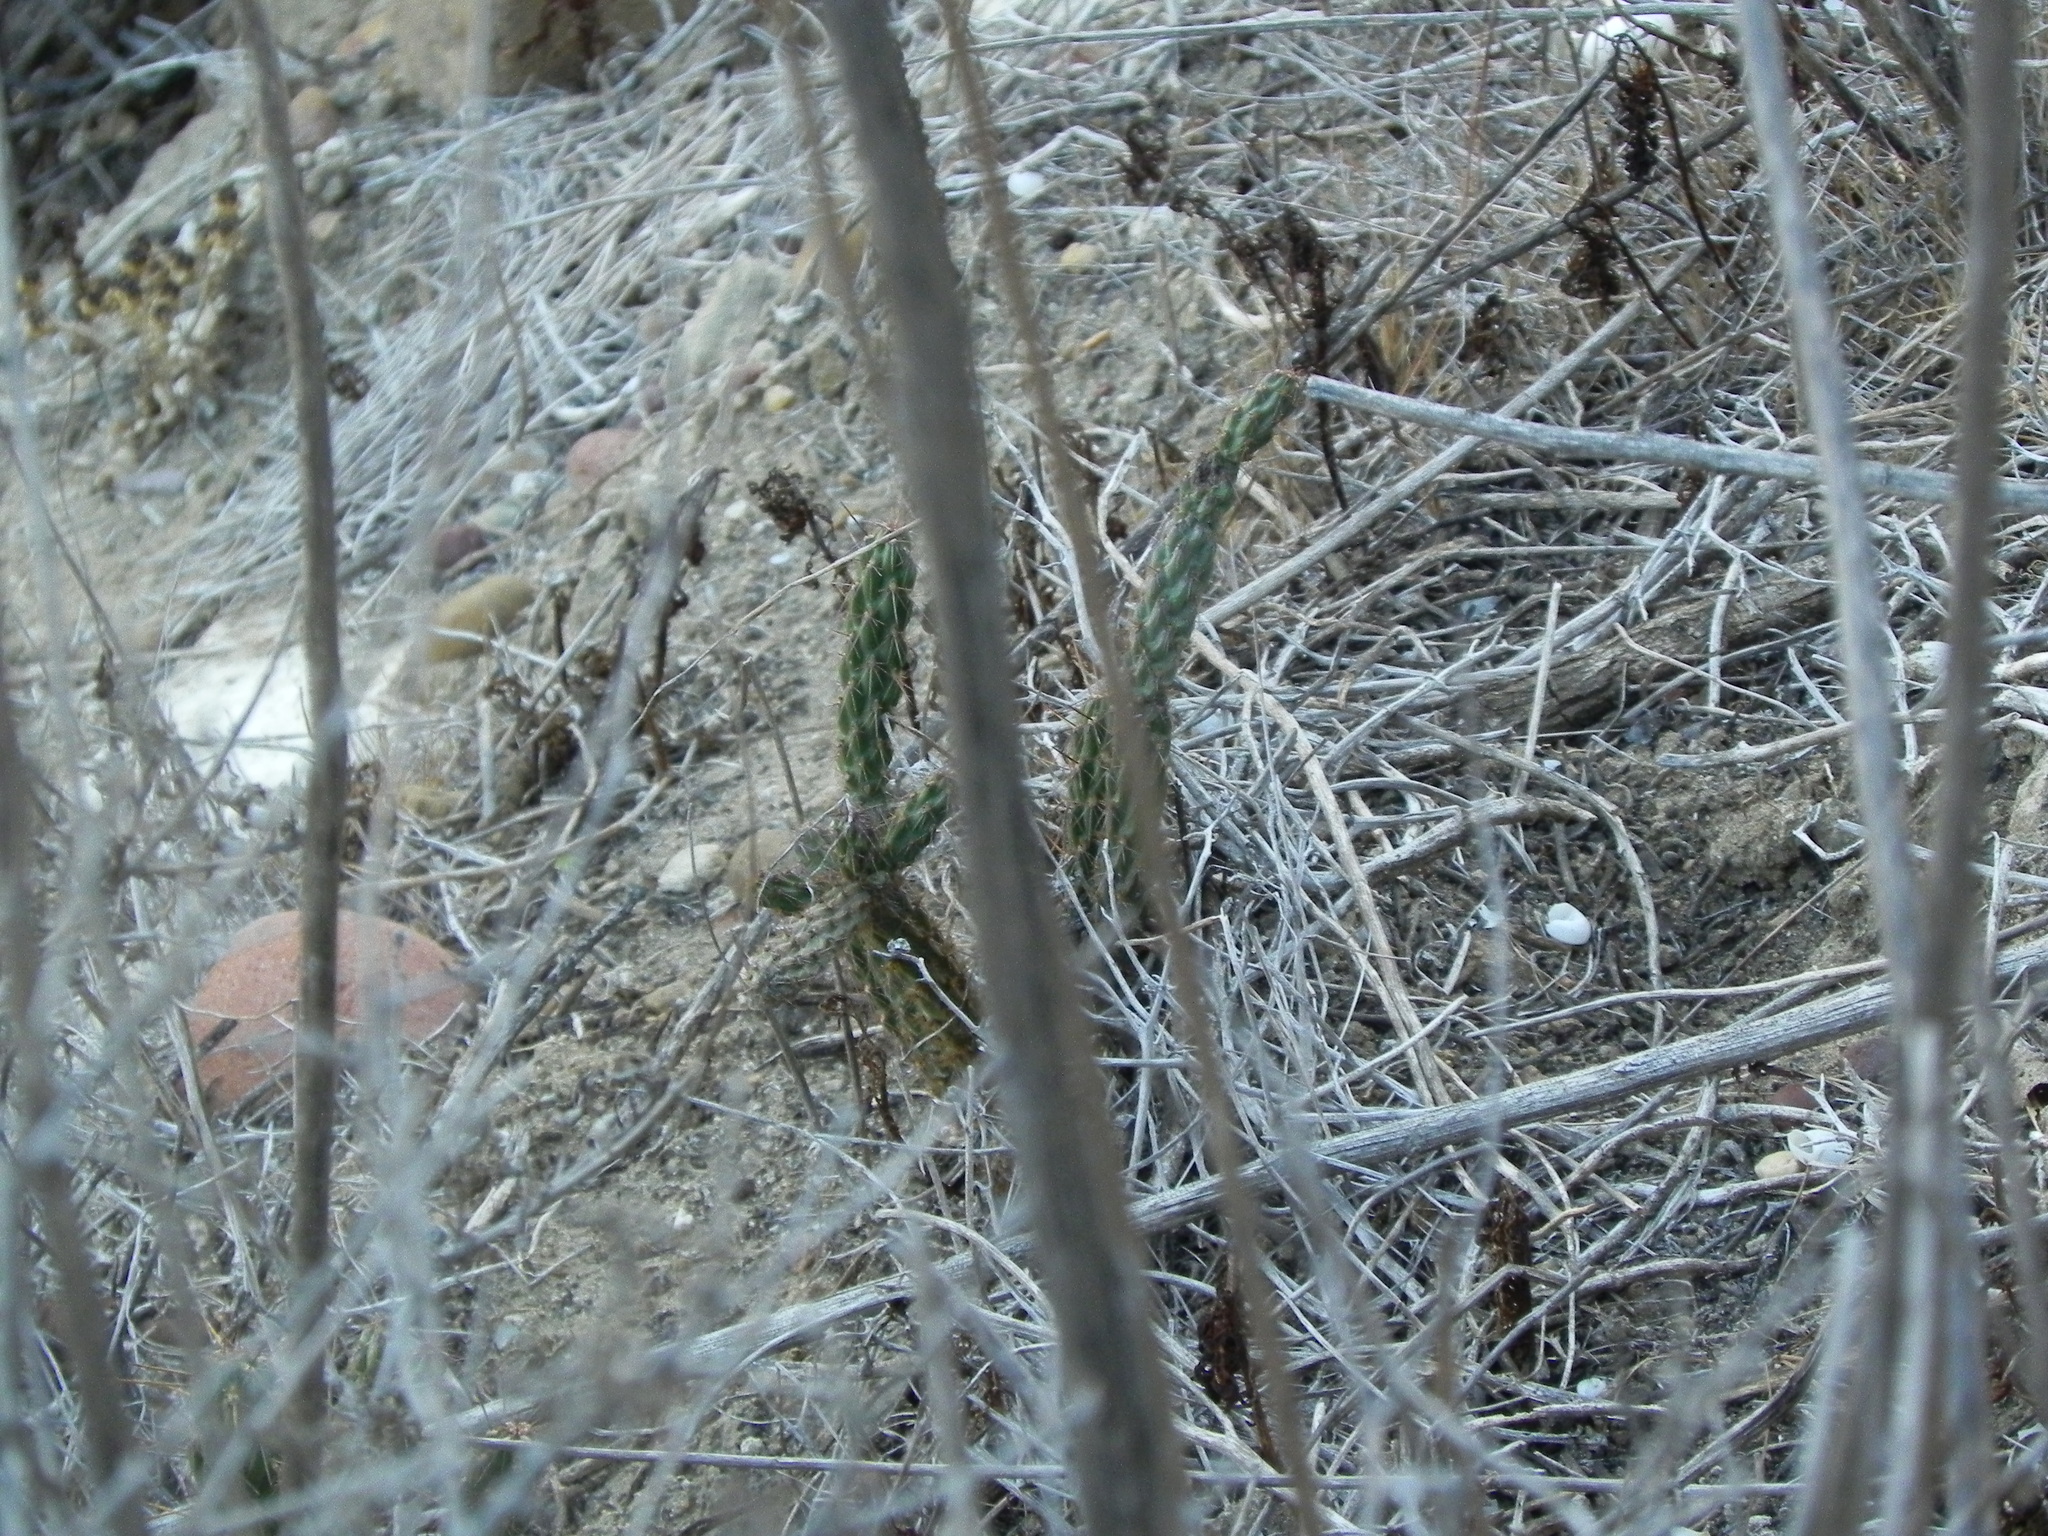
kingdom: Plantae
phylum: Tracheophyta
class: Magnoliopsida
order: Caryophyllales
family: Cactaceae
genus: Cylindropuntia
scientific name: Cylindropuntia californica
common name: Snake cholla
